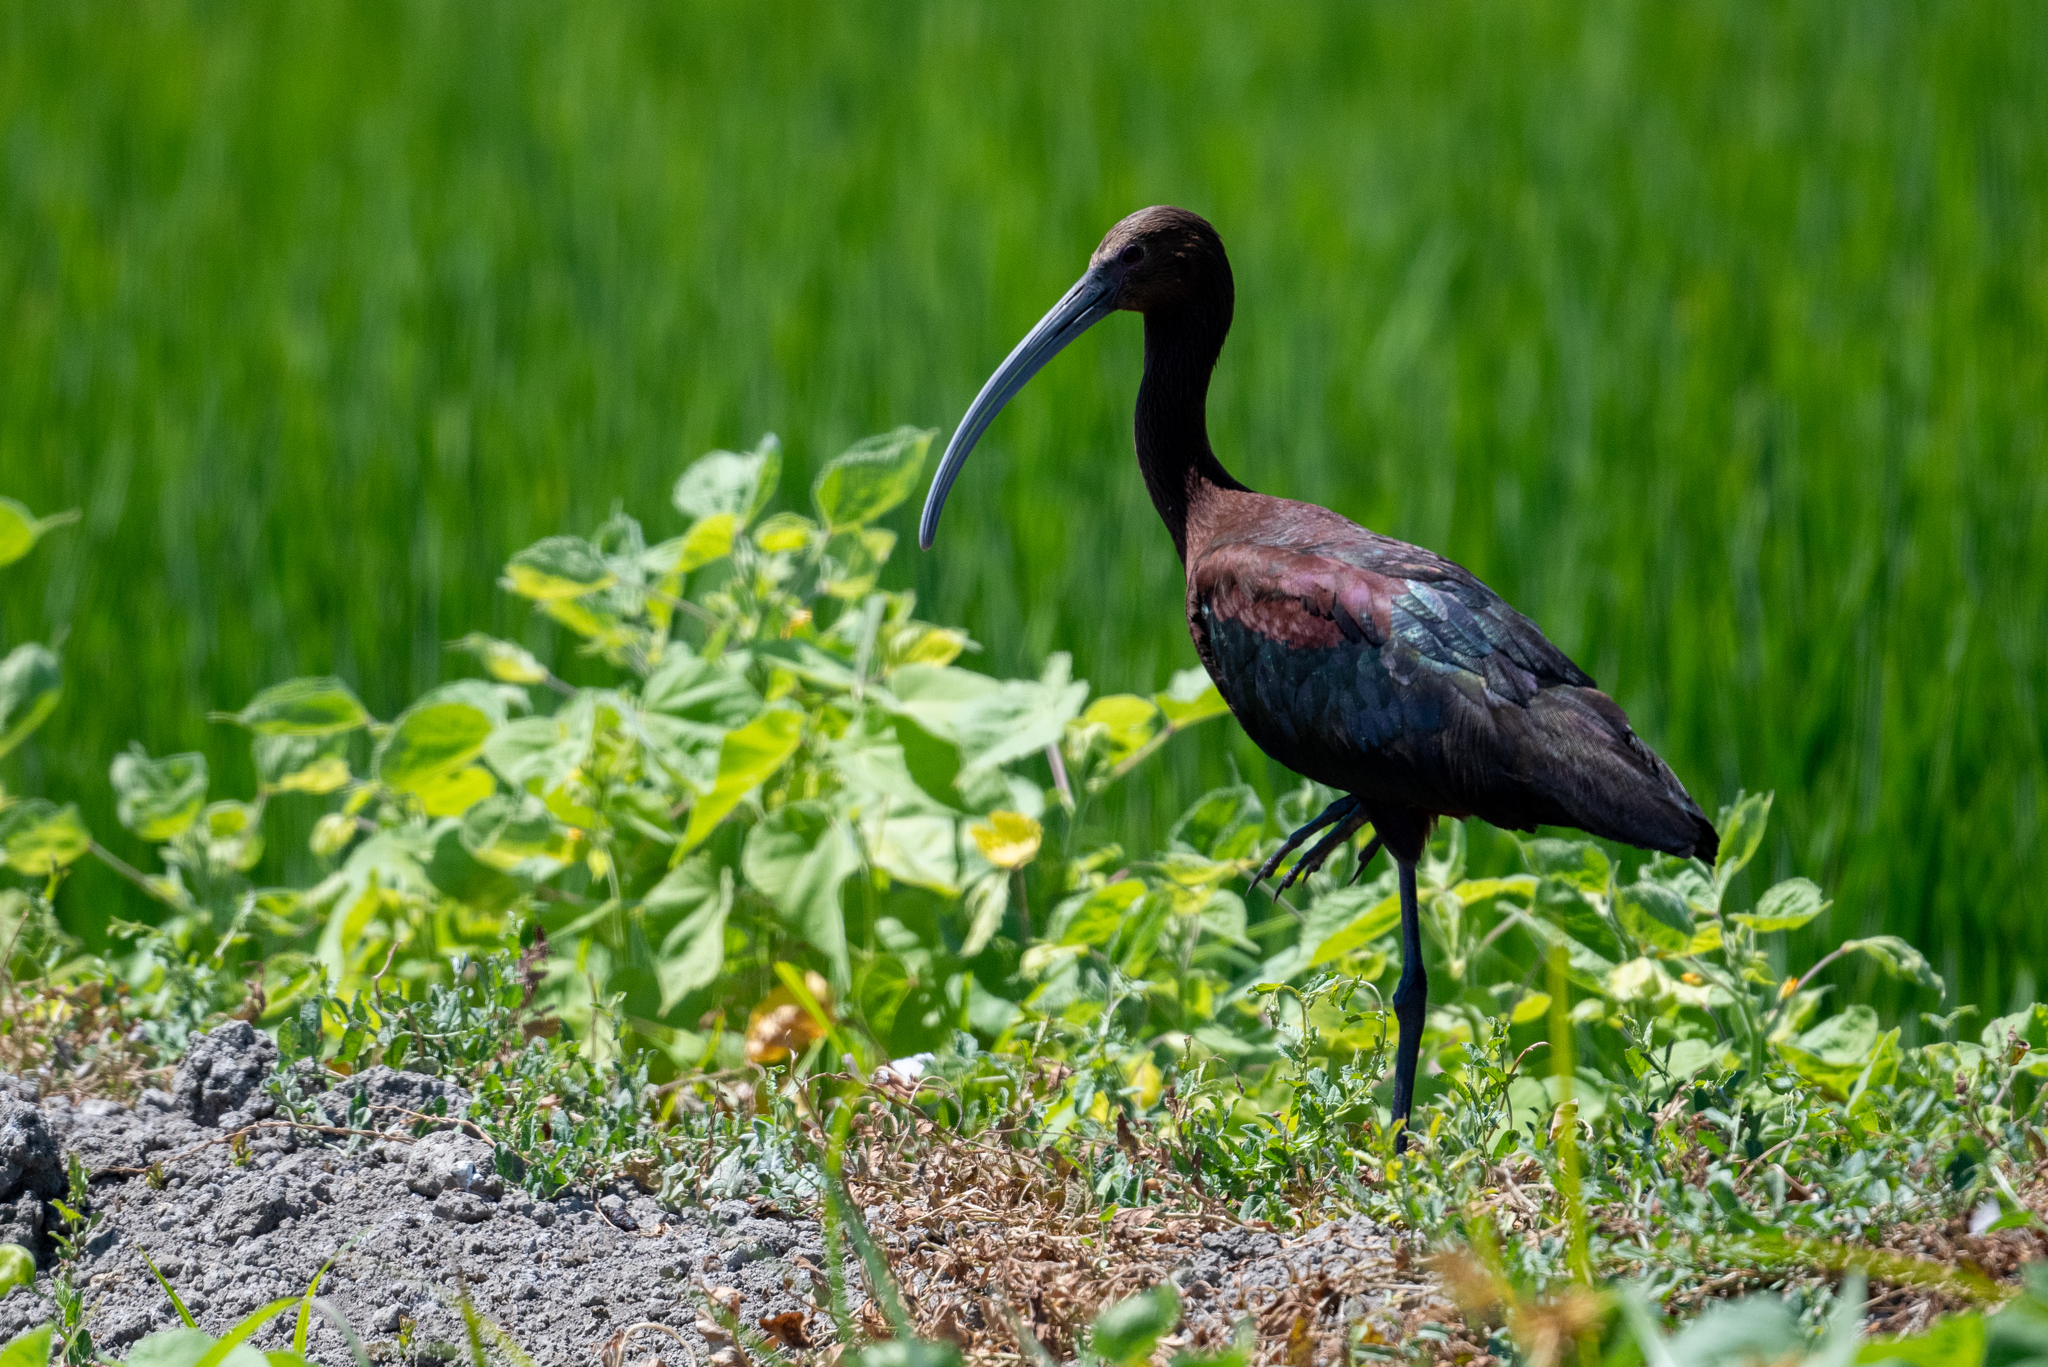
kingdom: Animalia
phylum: Chordata
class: Aves
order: Pelecaniformes
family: Threskiornithidae
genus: Plegadis
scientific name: Plegadis chihi
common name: White-faced ibis
